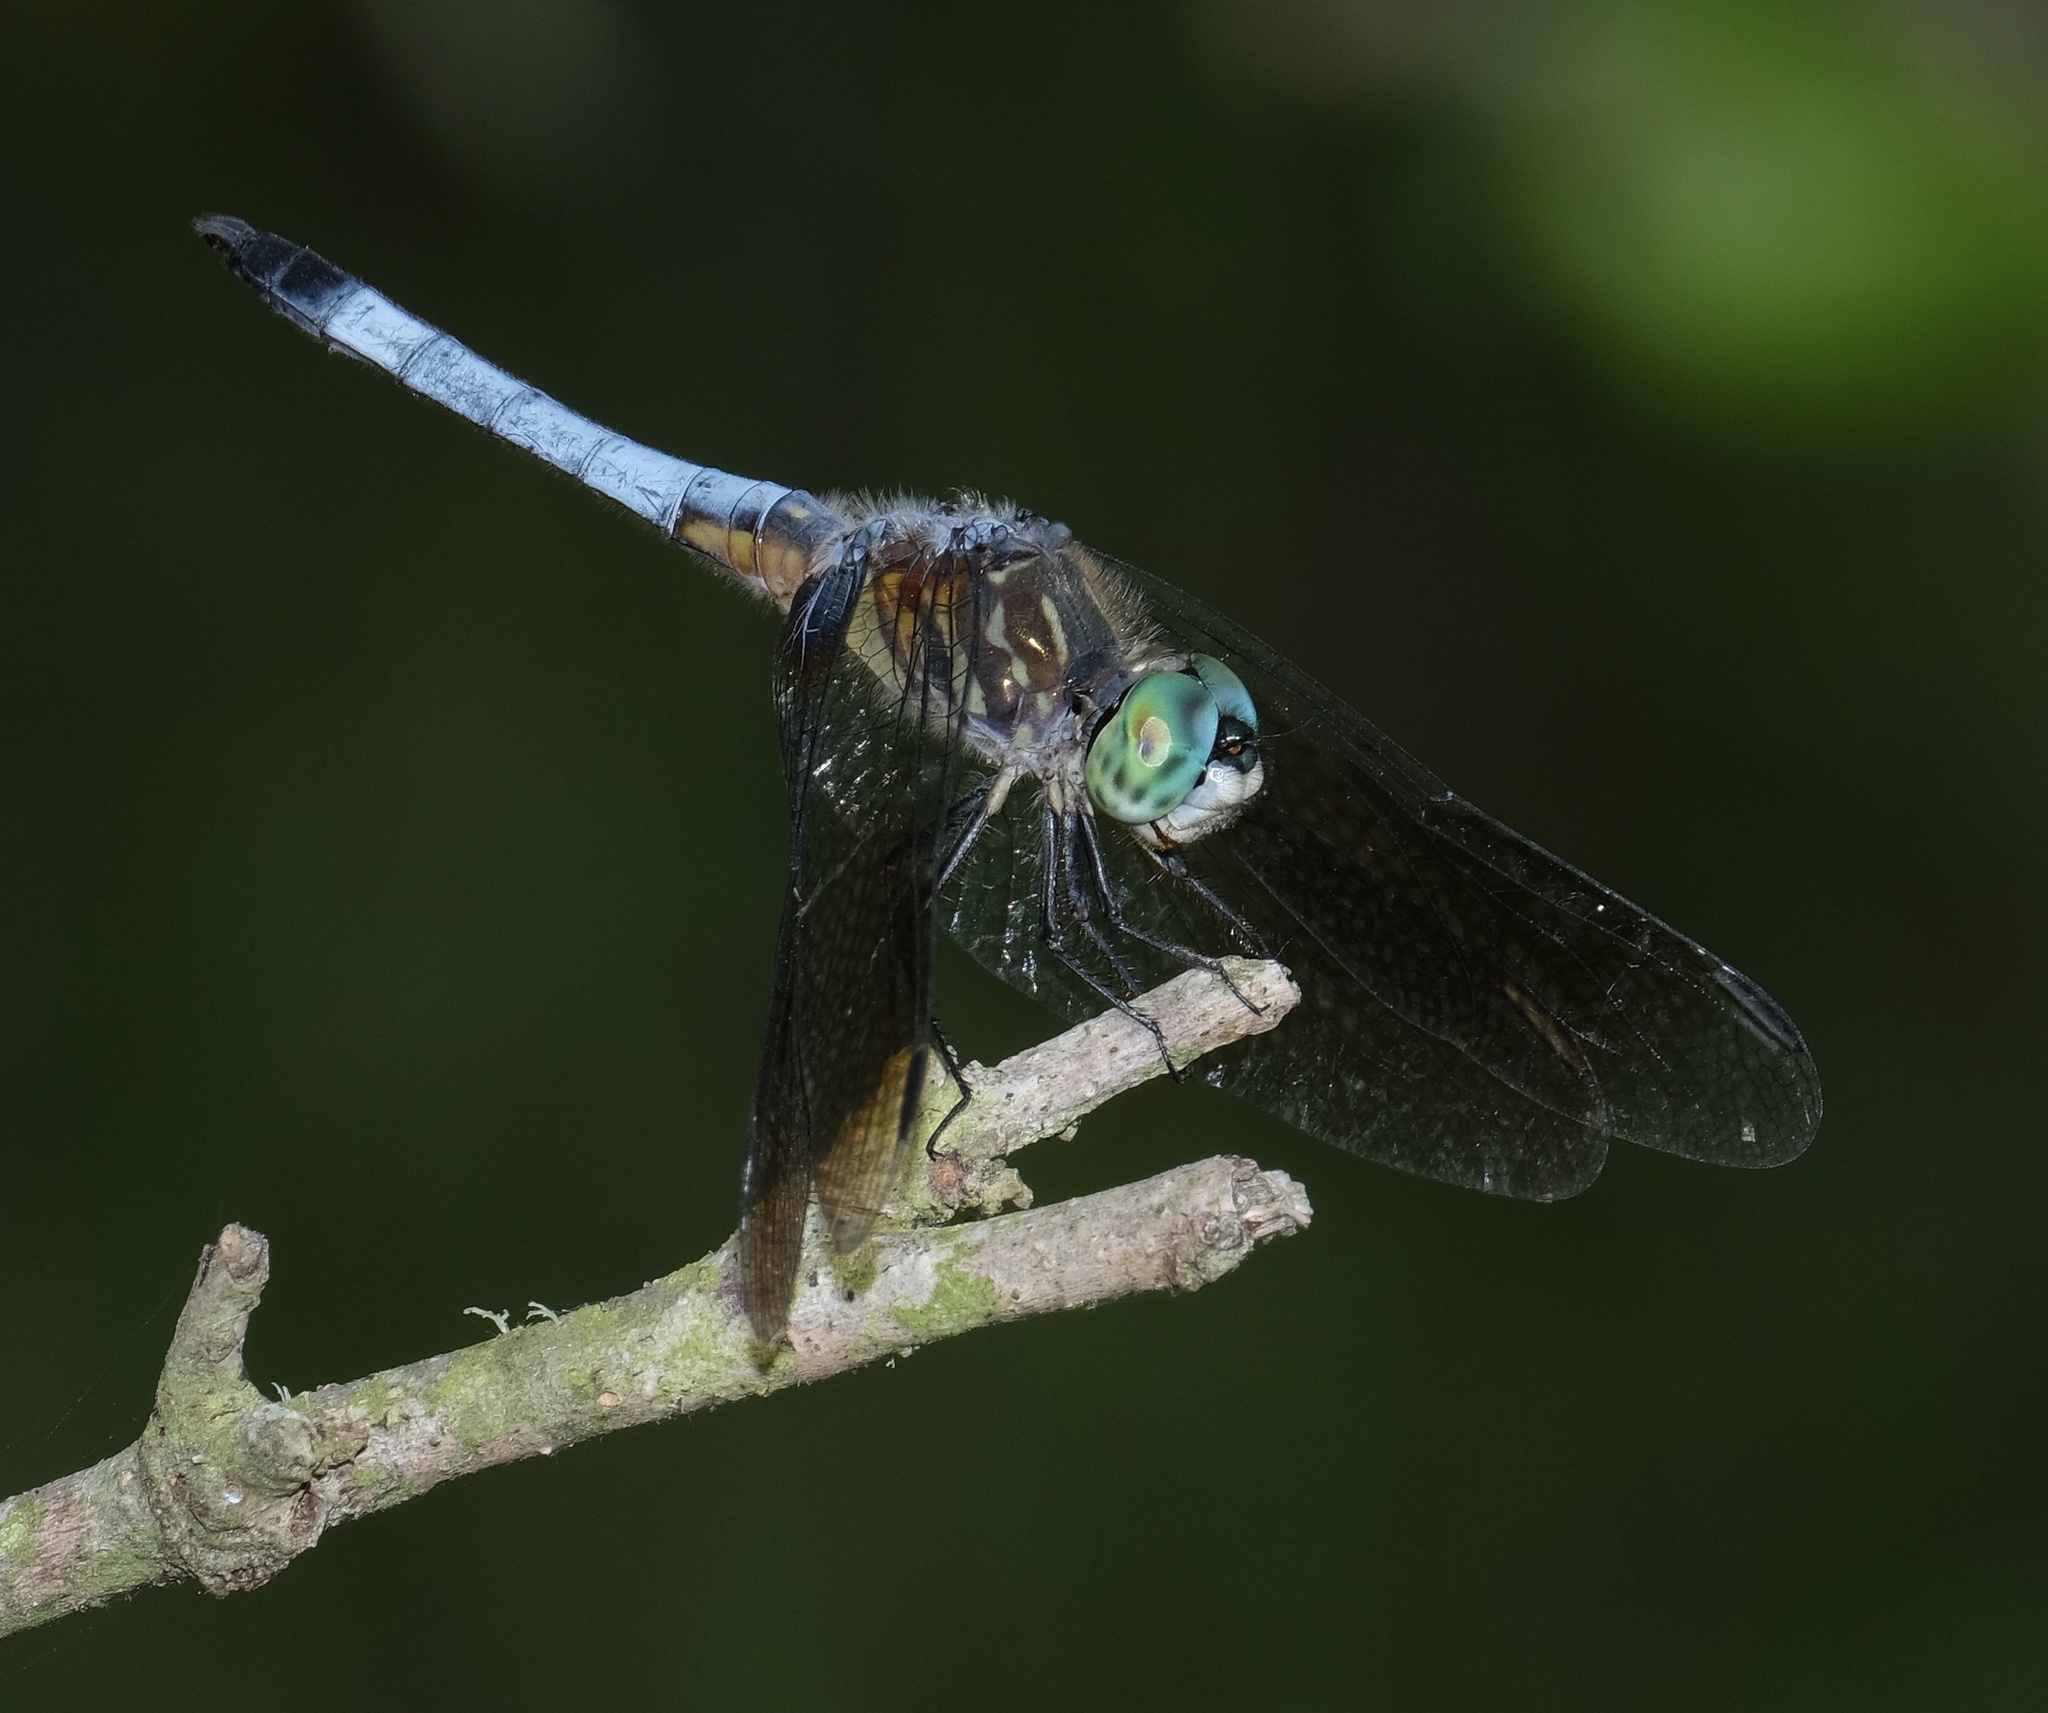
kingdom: Animalia
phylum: Arthropoda
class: Insecta
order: Odonata
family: Libellulidae
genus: Pachydiplax
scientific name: Pachydiplax longipennis
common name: Blue dasher
